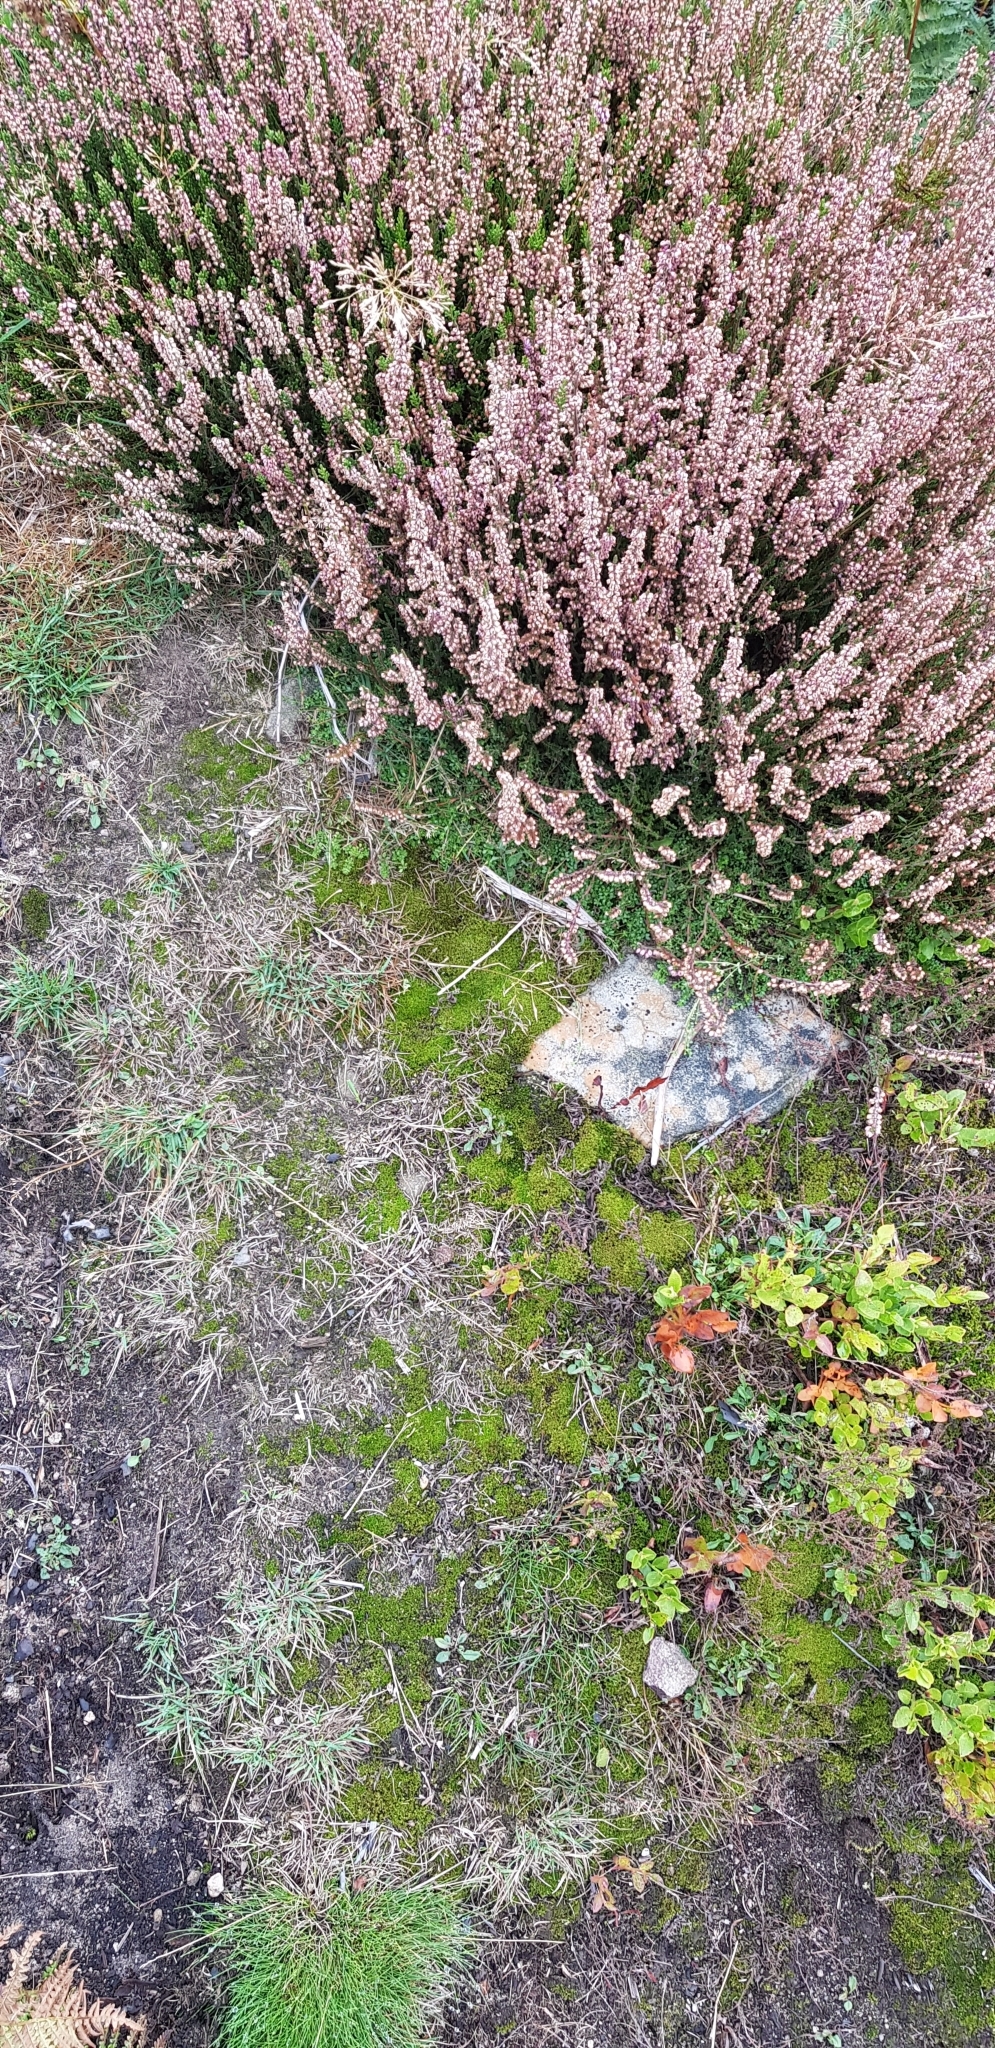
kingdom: Plantae
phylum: Bryophyta
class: Bryopsida
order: Dicranales
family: Ditrichaceae
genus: Ceratodon
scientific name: Ceratodon purpureus
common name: Redshank
